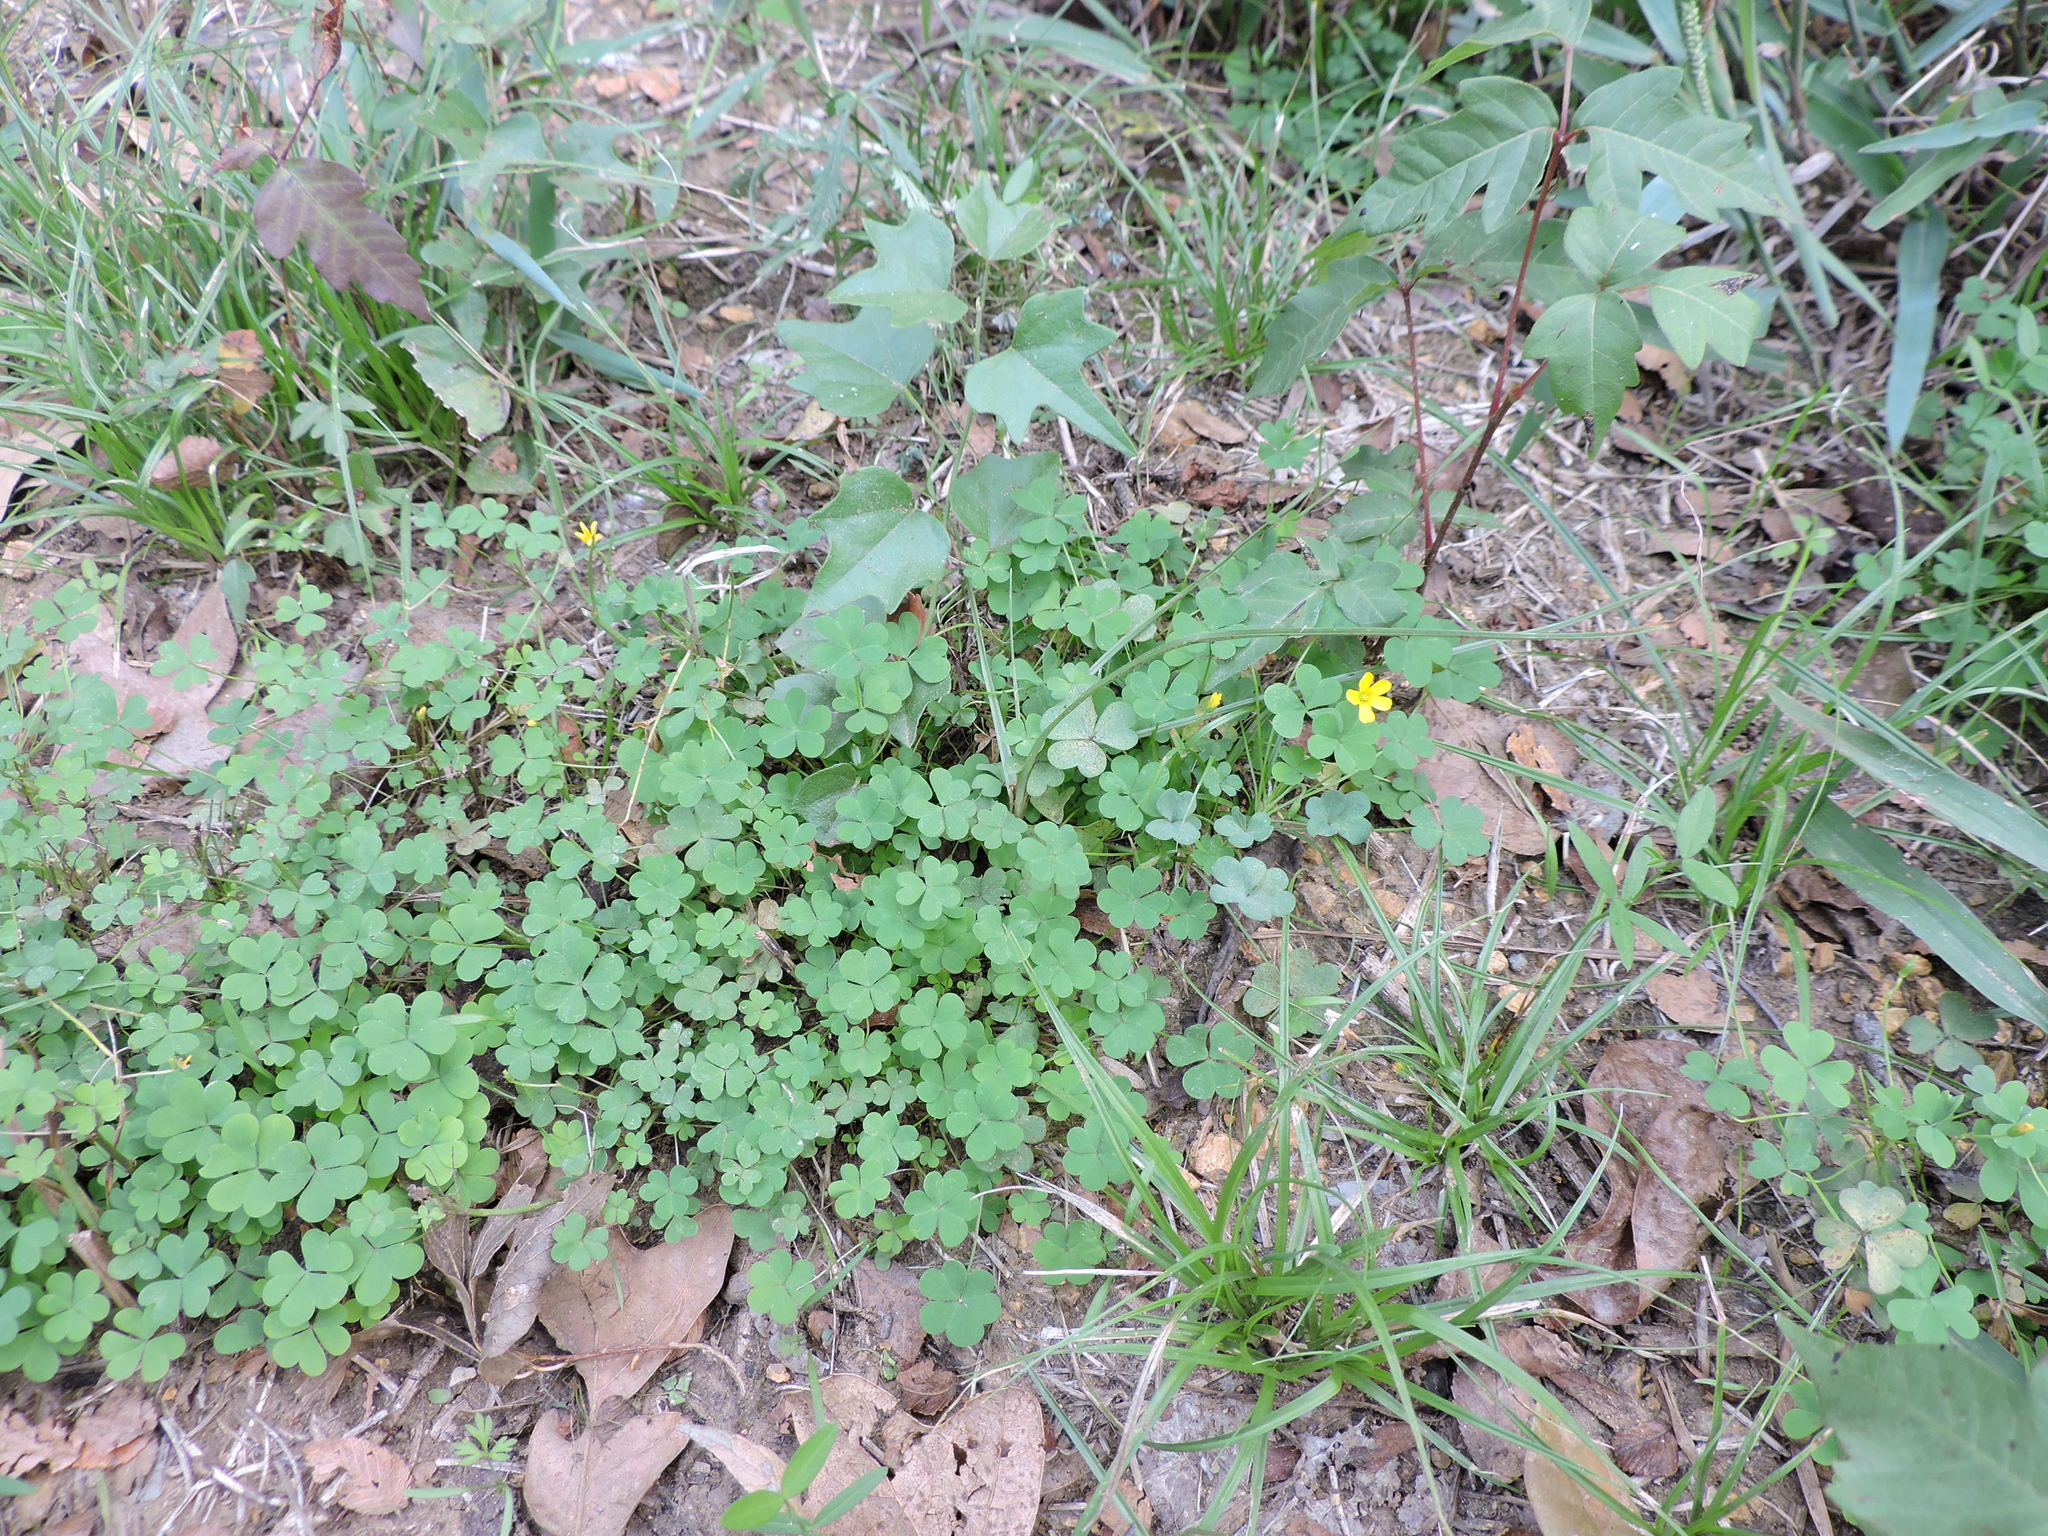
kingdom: Plantae
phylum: Tracheophyta
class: Magnoliopsida
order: Oxalidales
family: Oxalidaceae
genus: Oxalis
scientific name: Oxalis corniculata
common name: Procumbent yellow-sorrel
